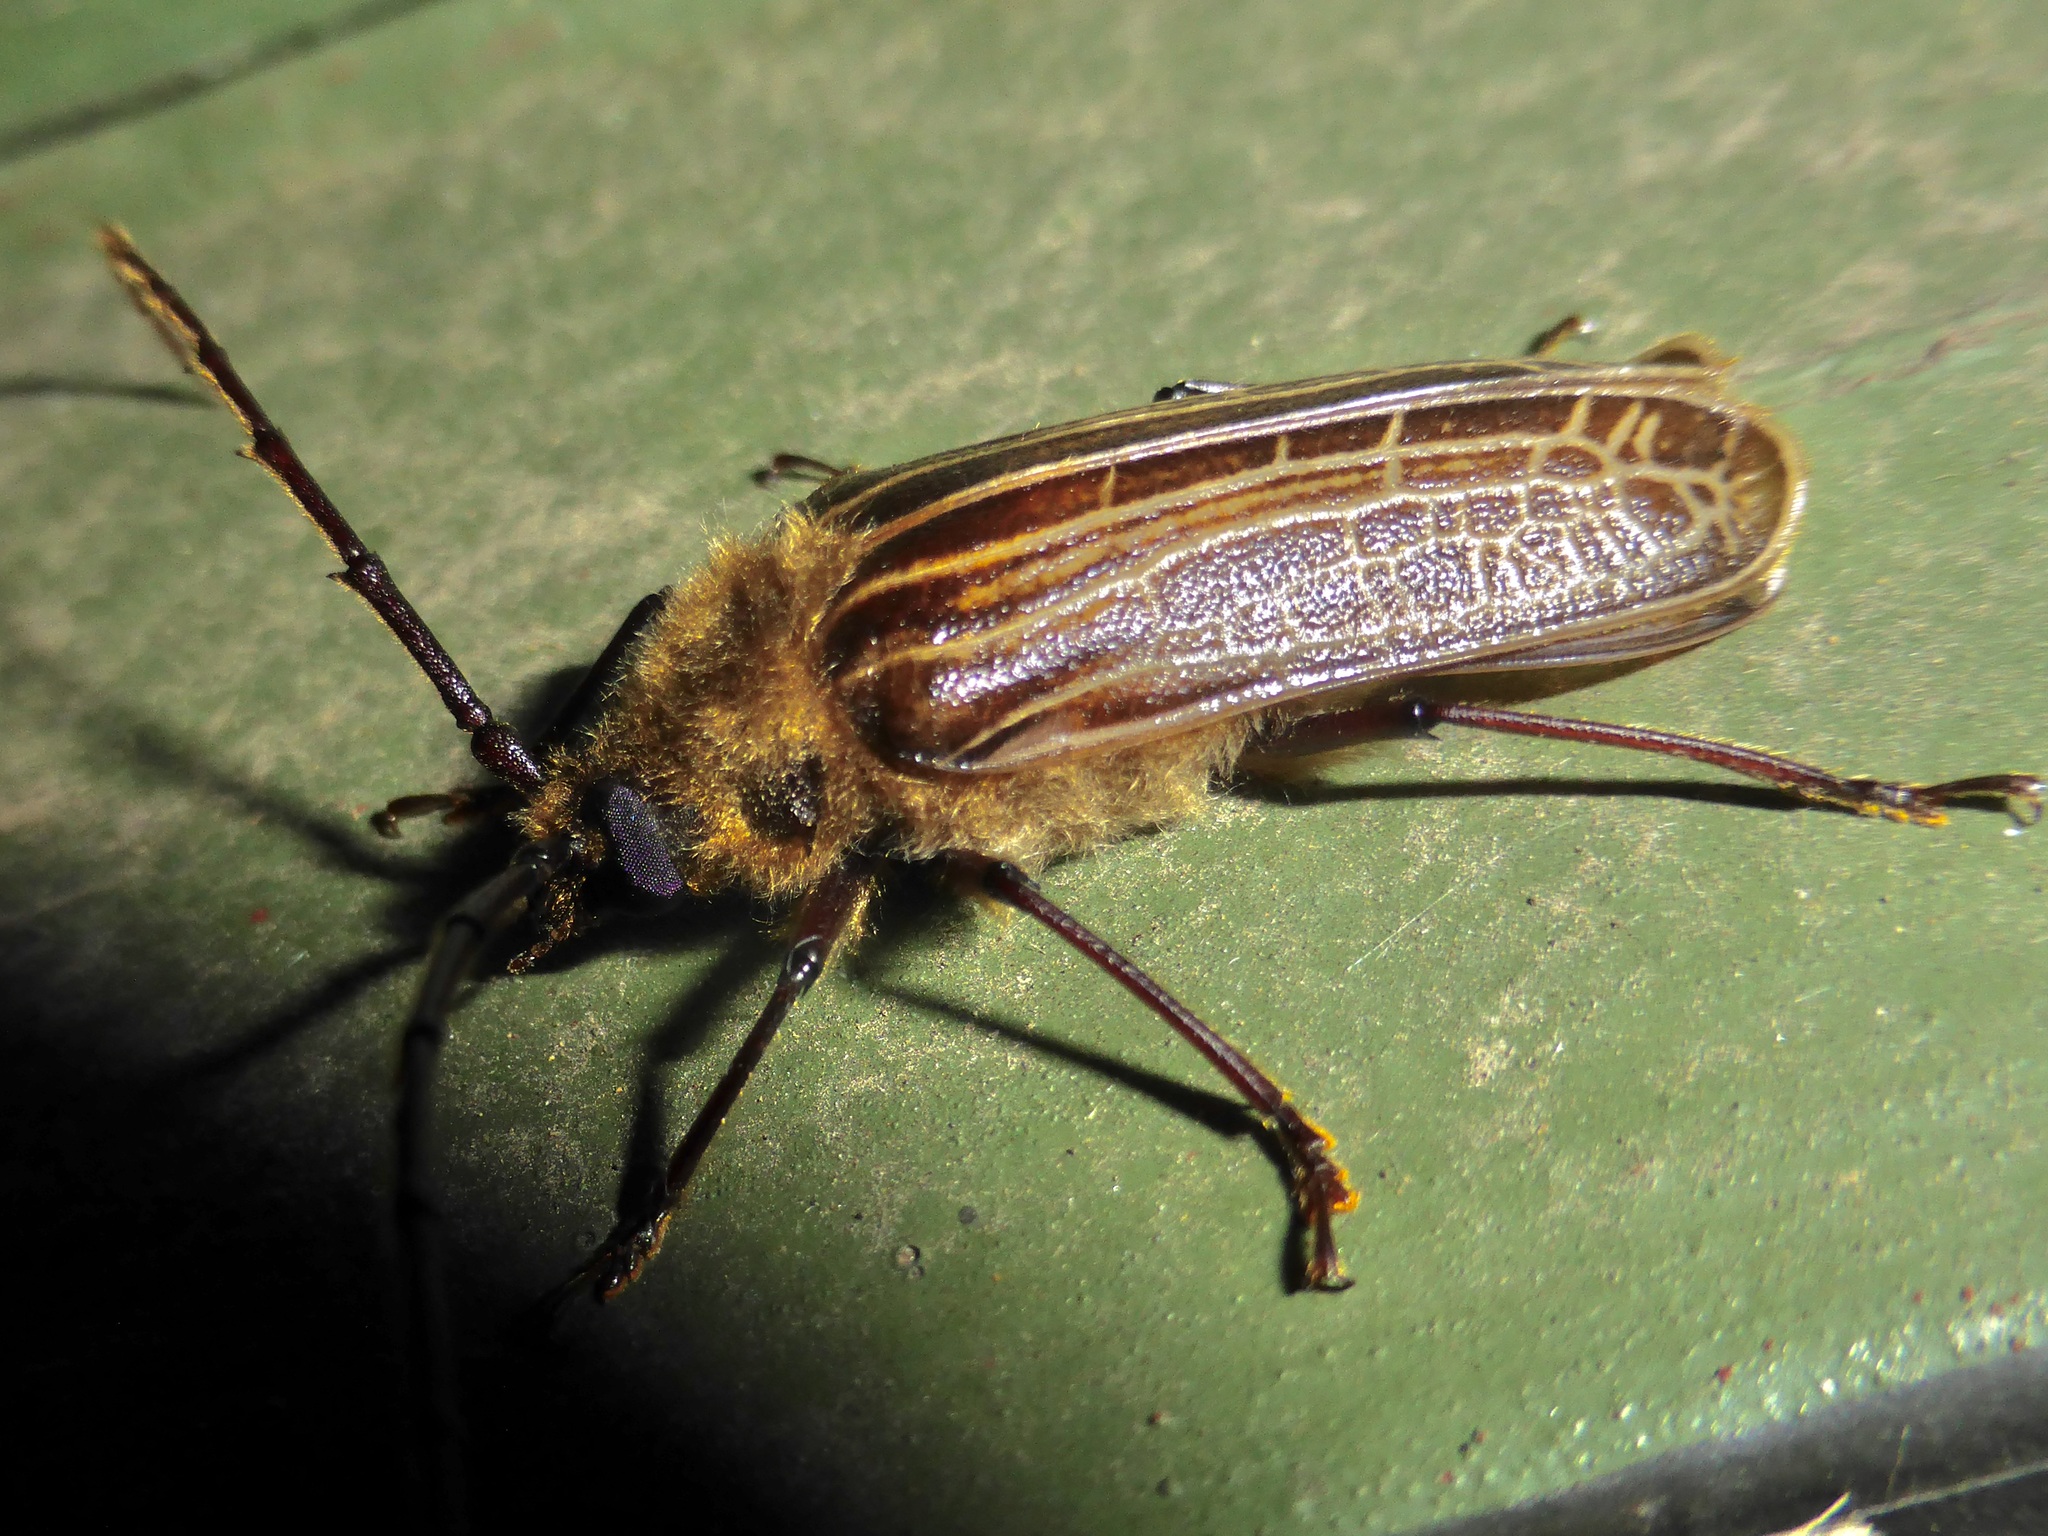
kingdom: Animalia
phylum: Arthropoda
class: Insecta
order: Coleoptera
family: Cerambycidae
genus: Prionoplus
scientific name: Prionoplus reticularis
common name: Huhu beetle
